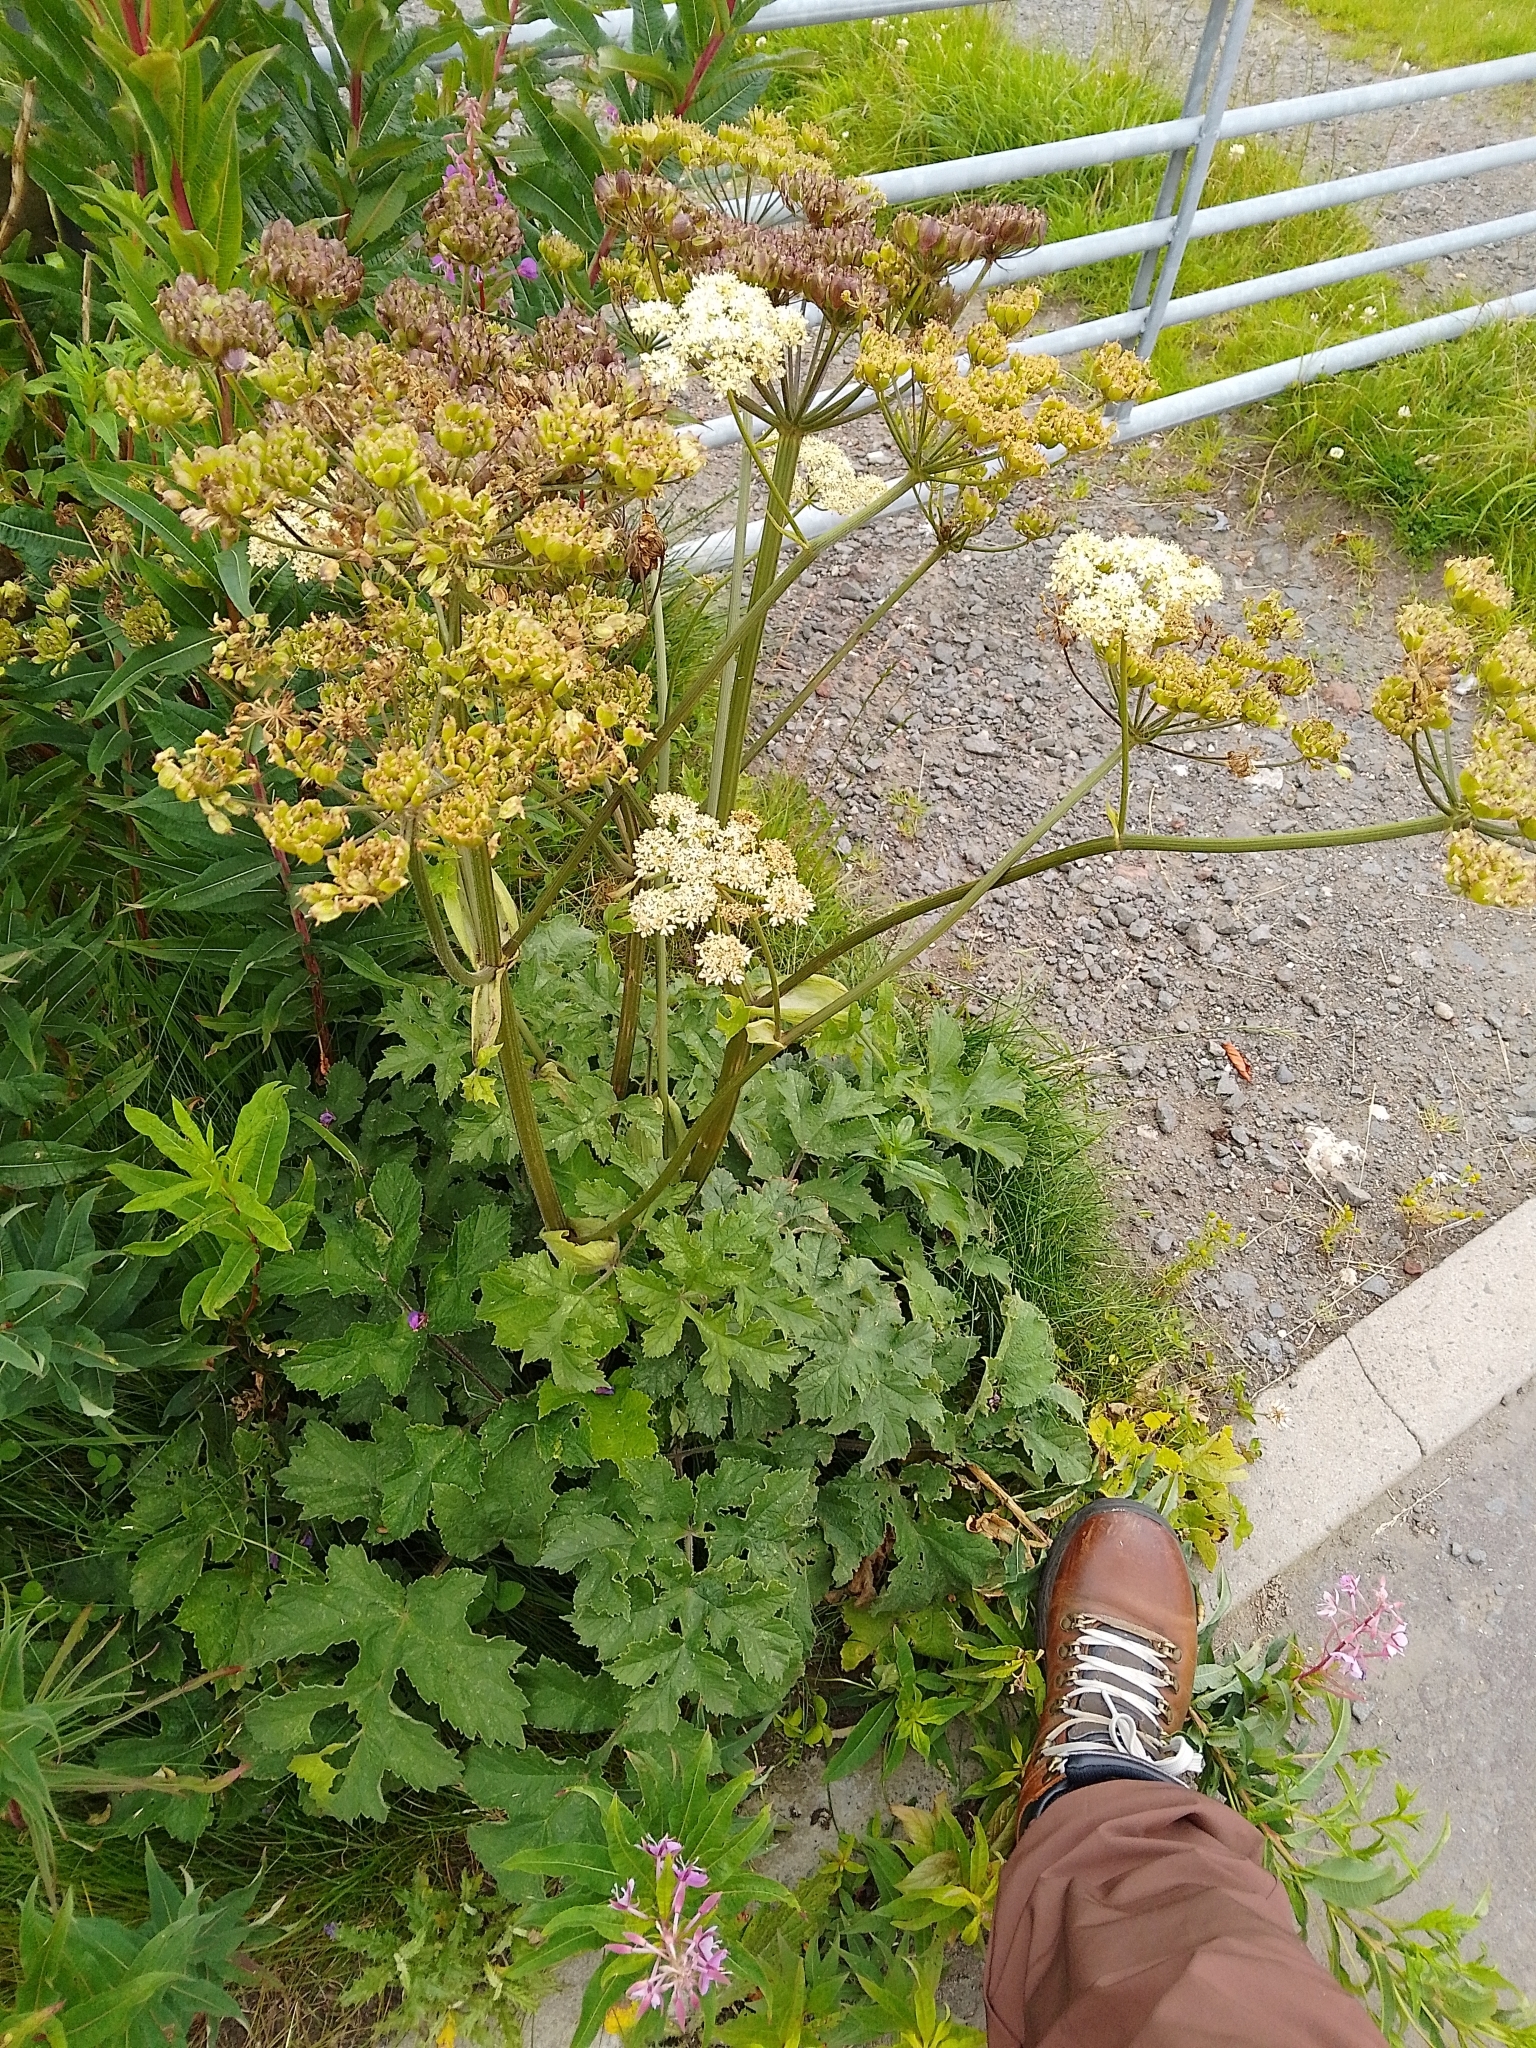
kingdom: Plantae
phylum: Tracheophyta
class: Magnoliopsida
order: Apiales
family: Apiaceae
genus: Heracleum
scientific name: Heracleum sphondylium
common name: Hogweed
